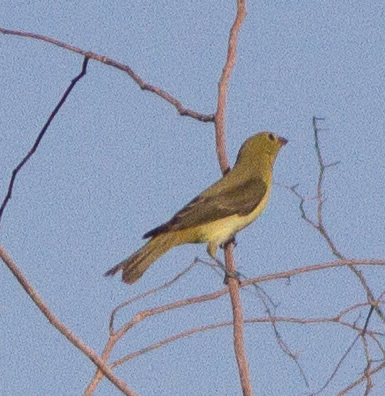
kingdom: Animalia
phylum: Chordata
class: Aves
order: Passeriformes
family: Cardinalidae
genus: Piranga
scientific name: Piranga olivacea
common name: Scarlet tanager
